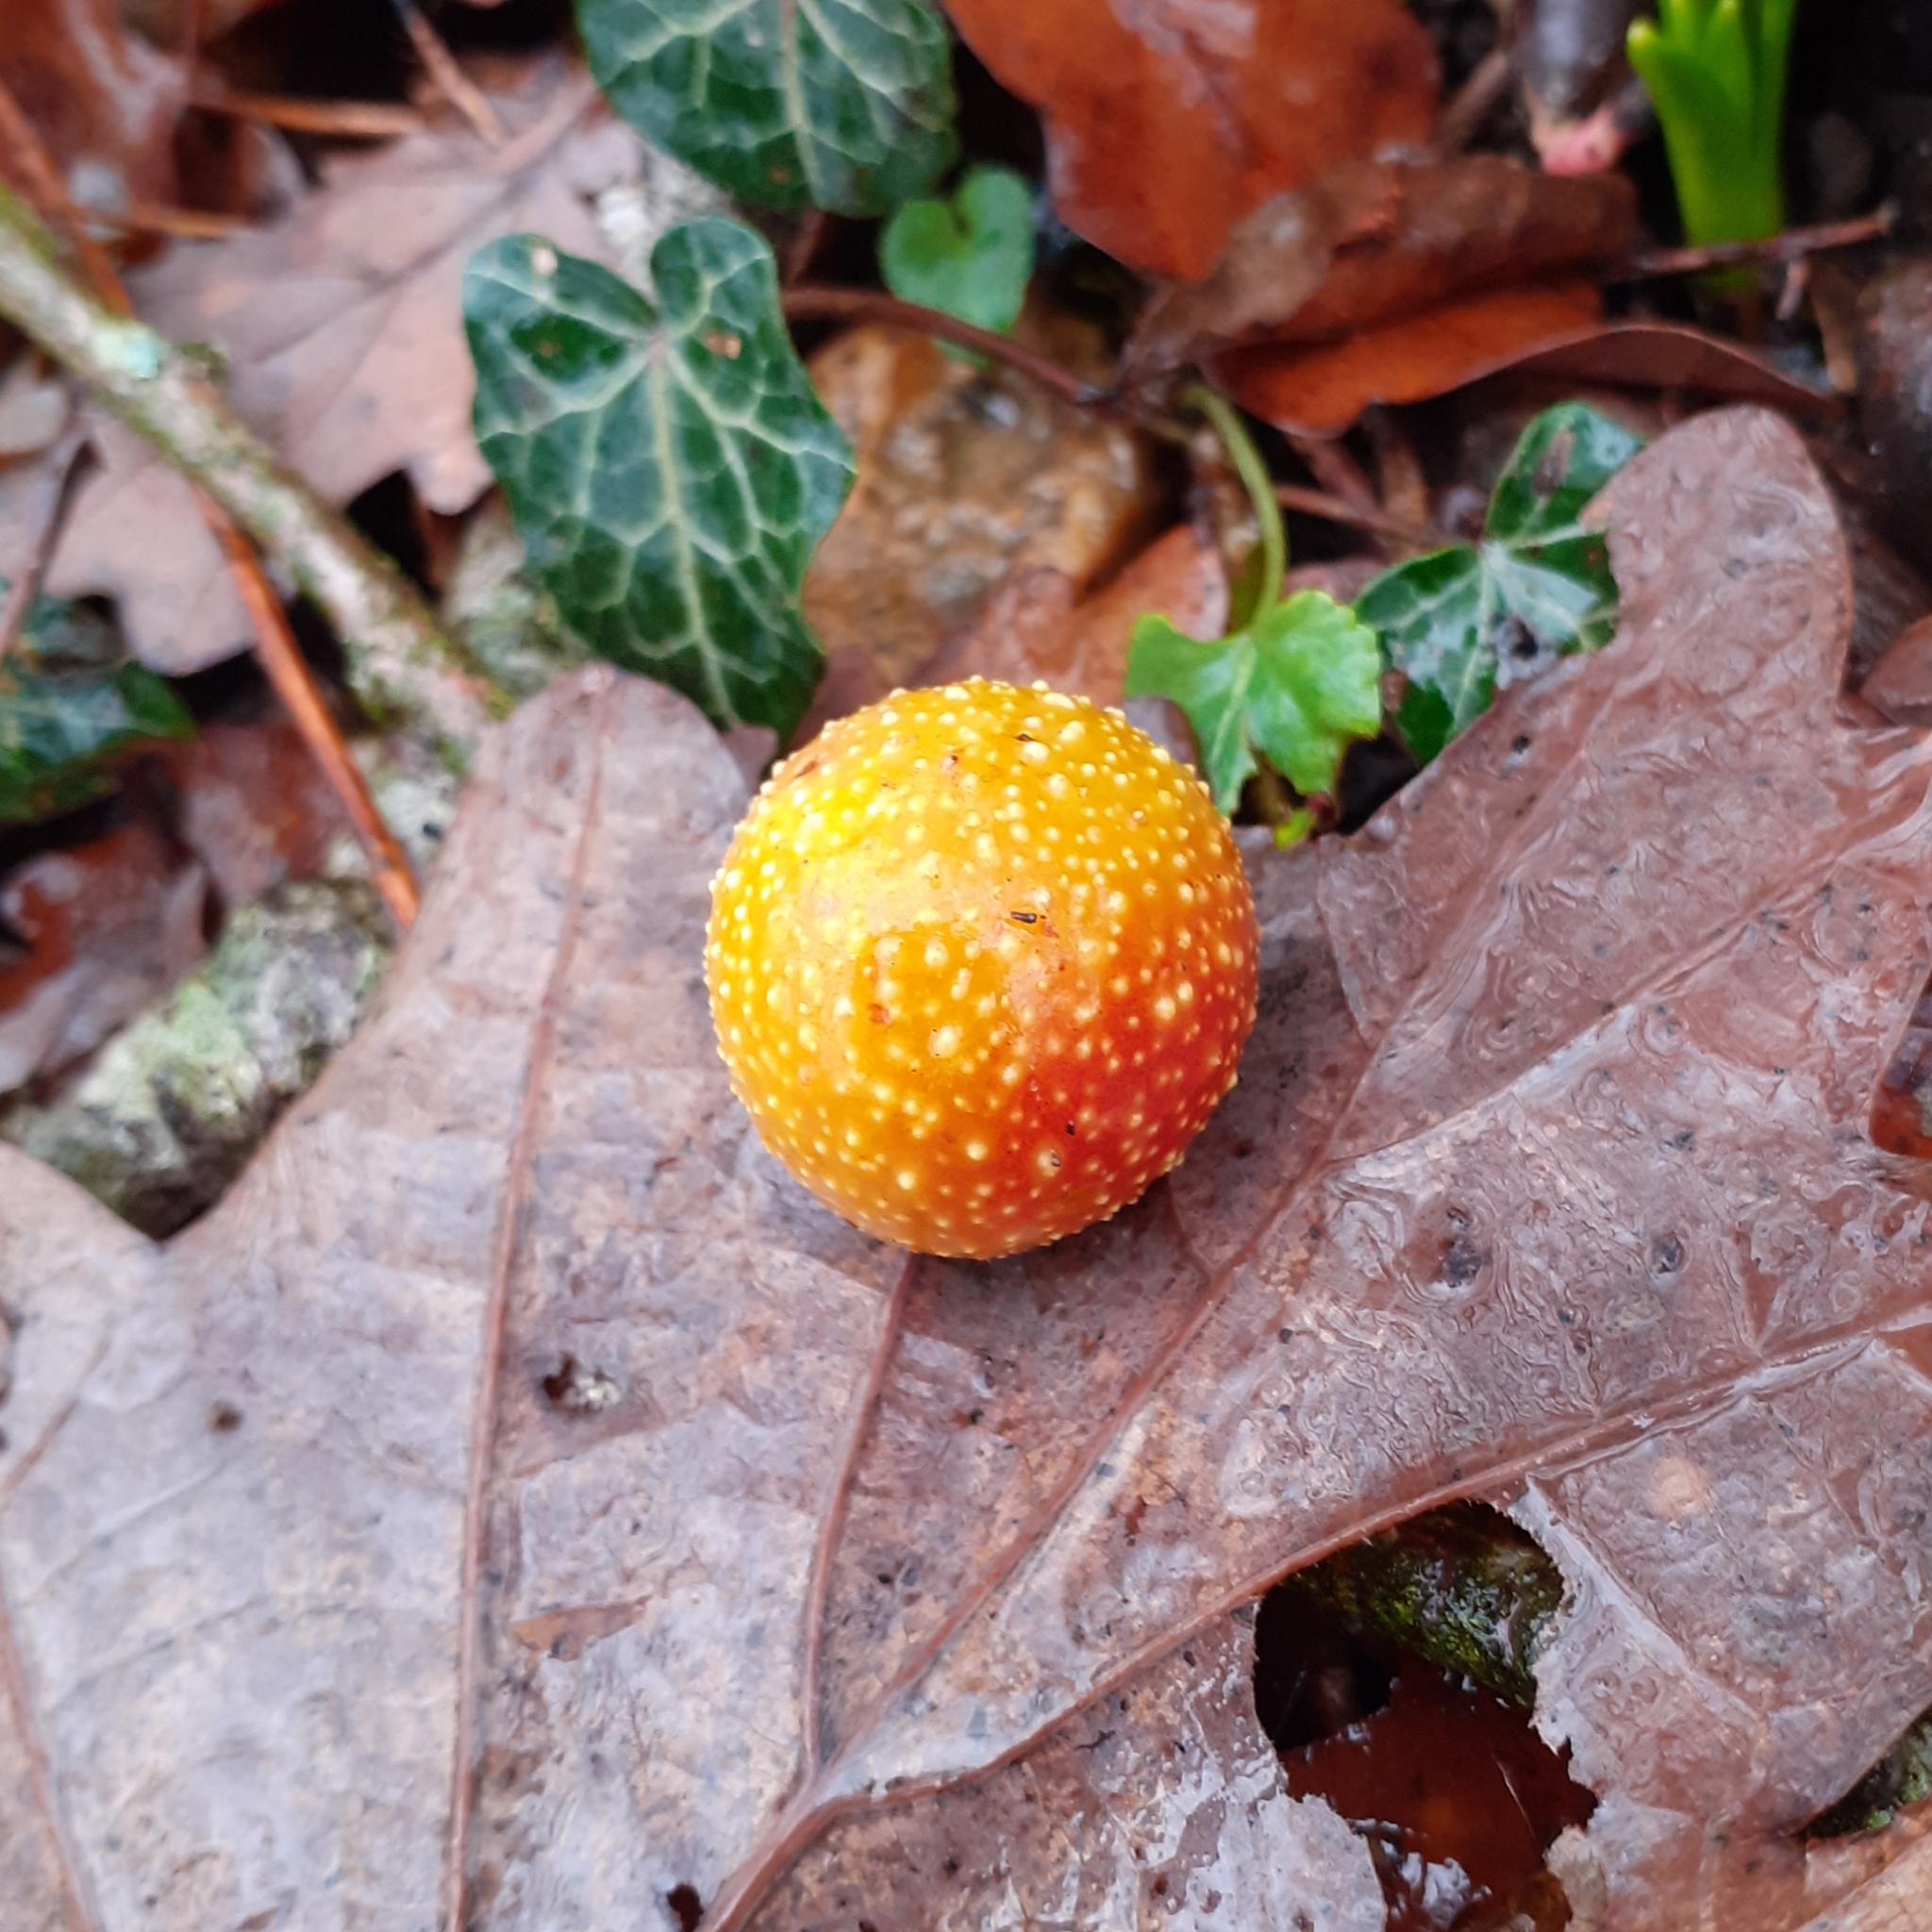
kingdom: Animalia
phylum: Arthropoda
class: Insecta
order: Hymenoptera
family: Cynipidae
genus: Cynips
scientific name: Cynips quercusfolii
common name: Cherry gall
